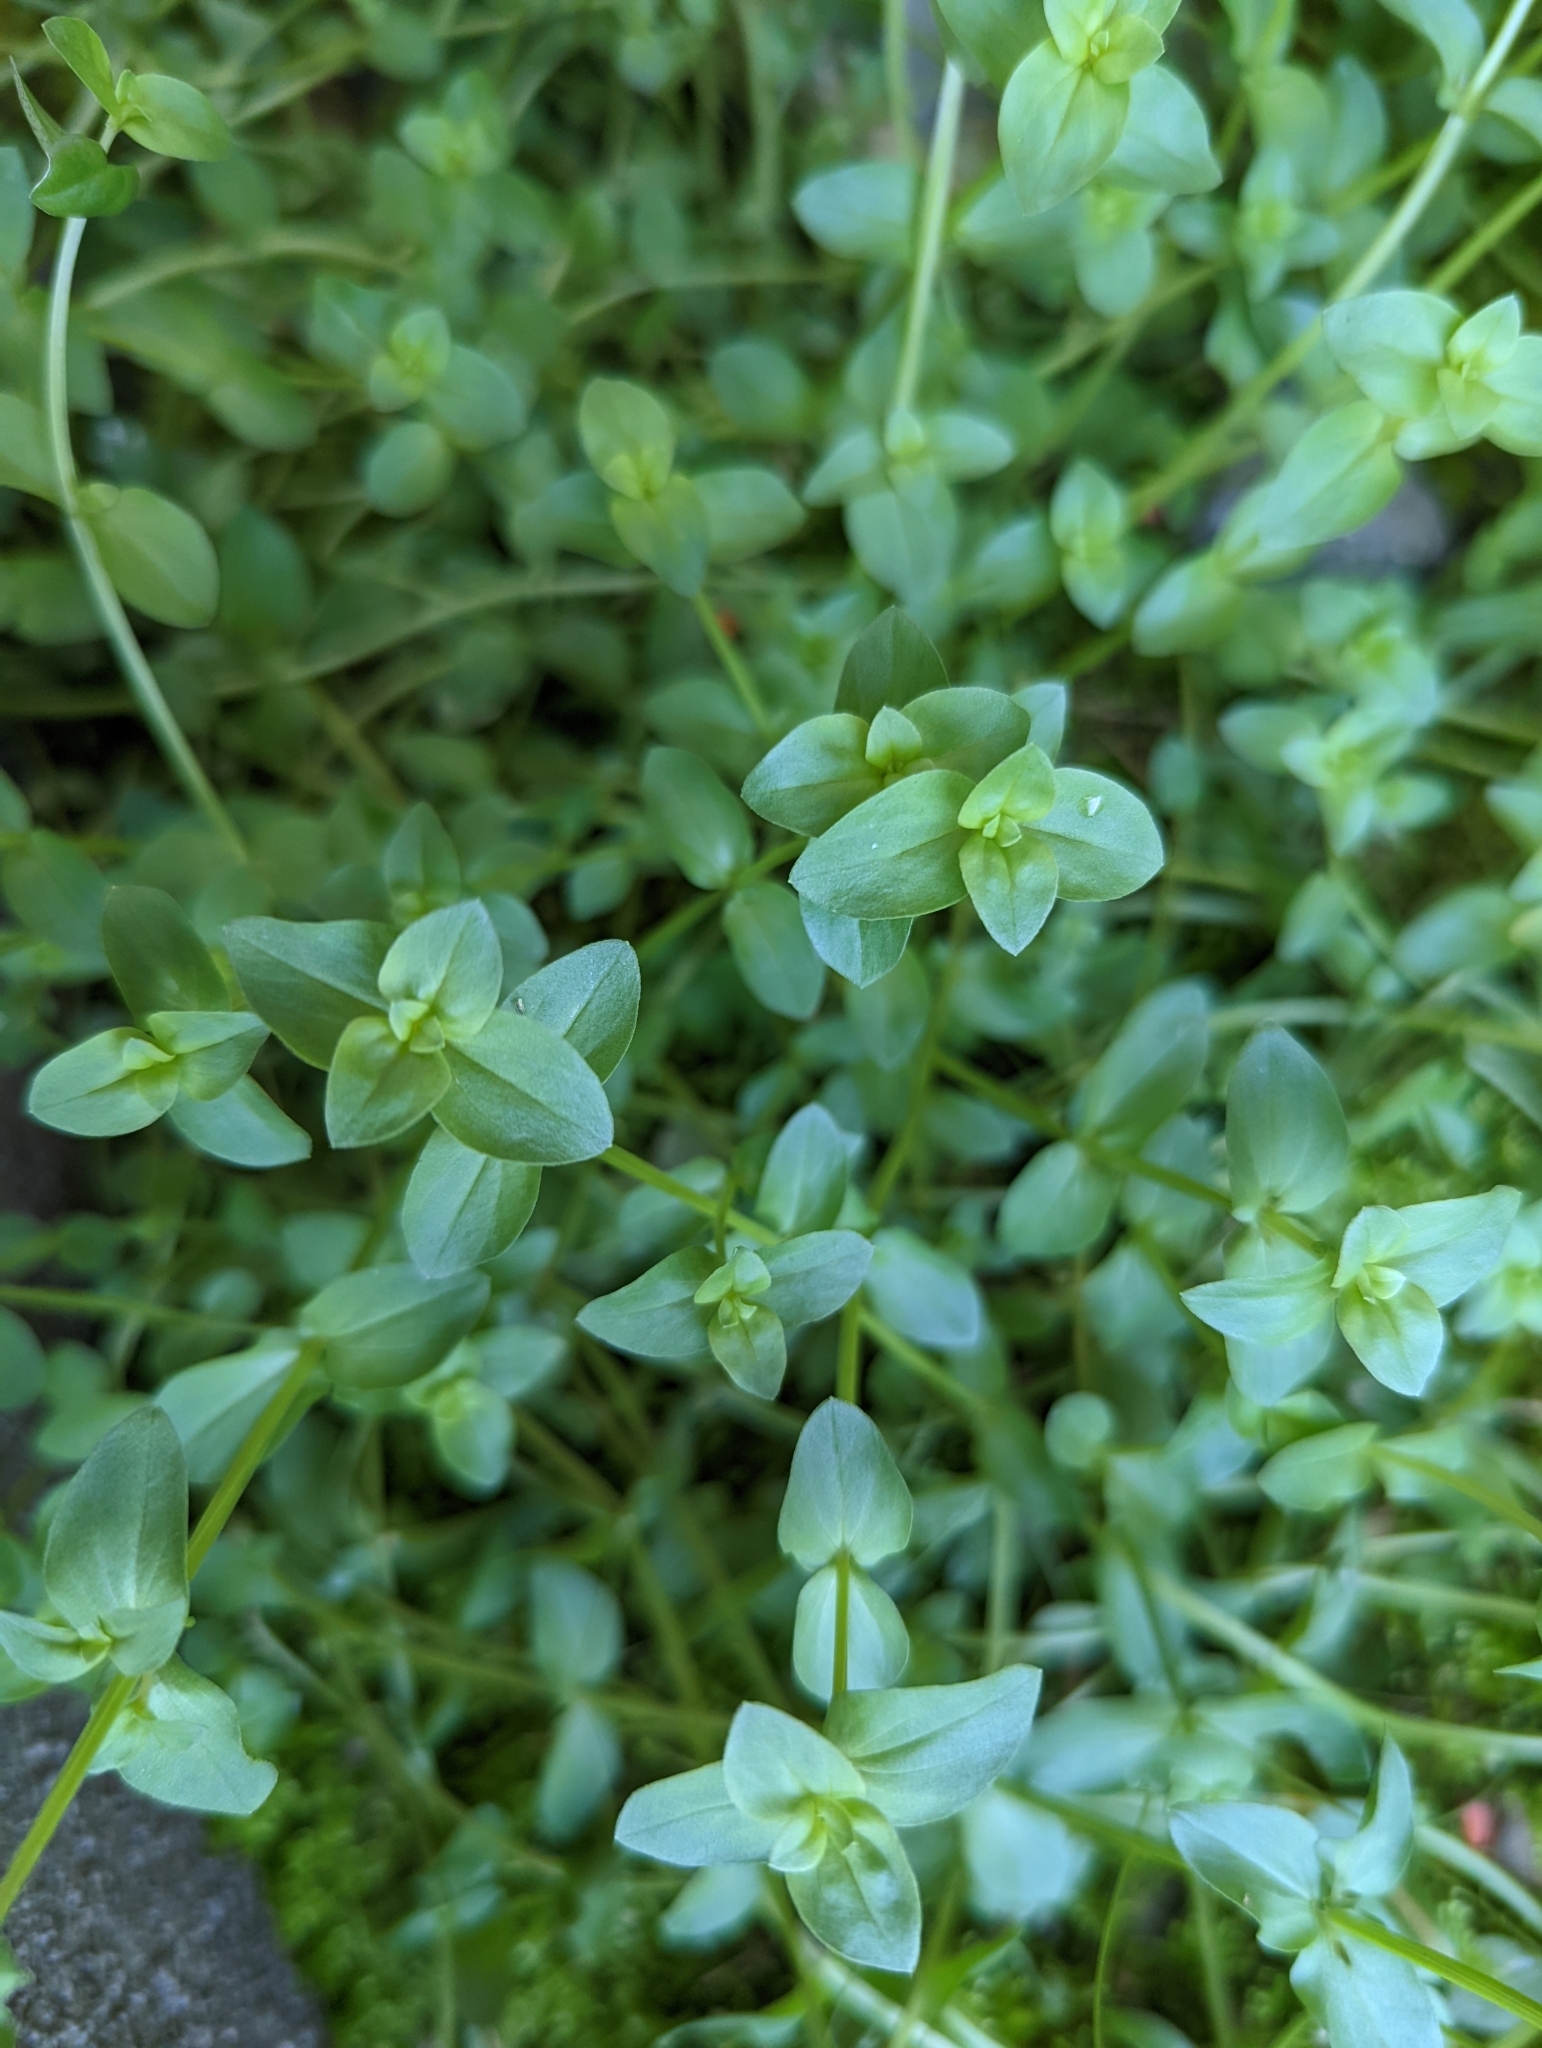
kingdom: Plantae
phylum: Tracheophyta
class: Magnoliopsida
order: Ericales
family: Primulaceae
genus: Lysimachia
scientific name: Lysimachia arvensis
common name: Scarlet pimpernel
